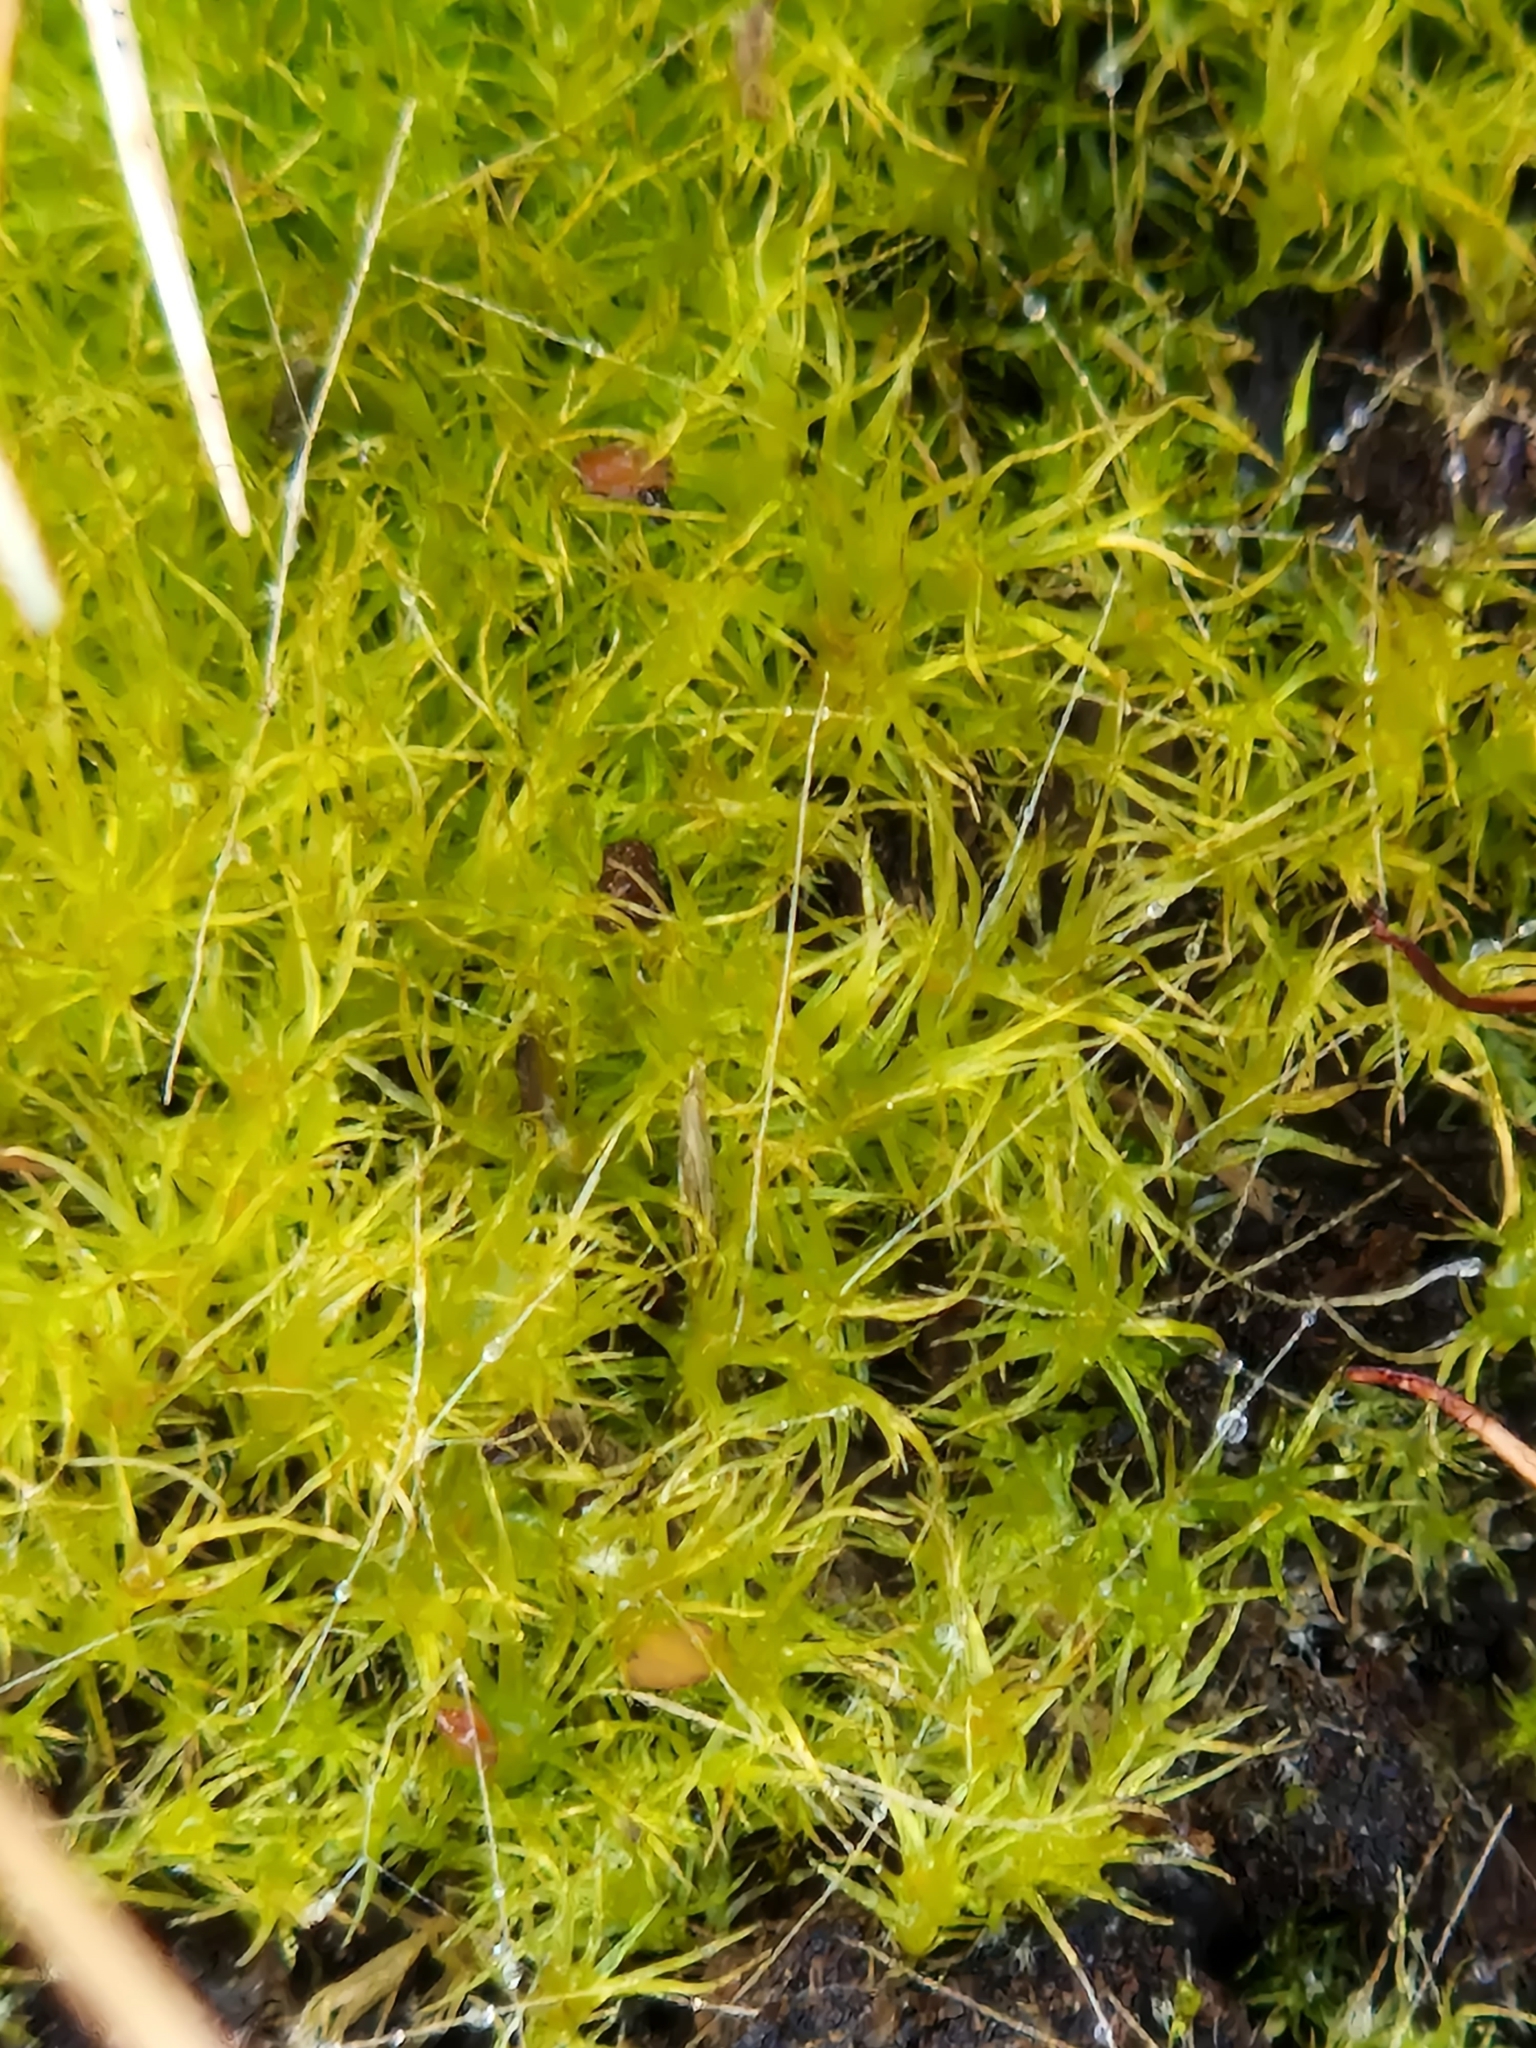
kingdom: Plantae
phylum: Bryophyta
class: Bryopsida
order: Splachnales
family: Meesiaceae
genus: Leptobryum
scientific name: Leptobryum pyriforme
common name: Golden thread moss
